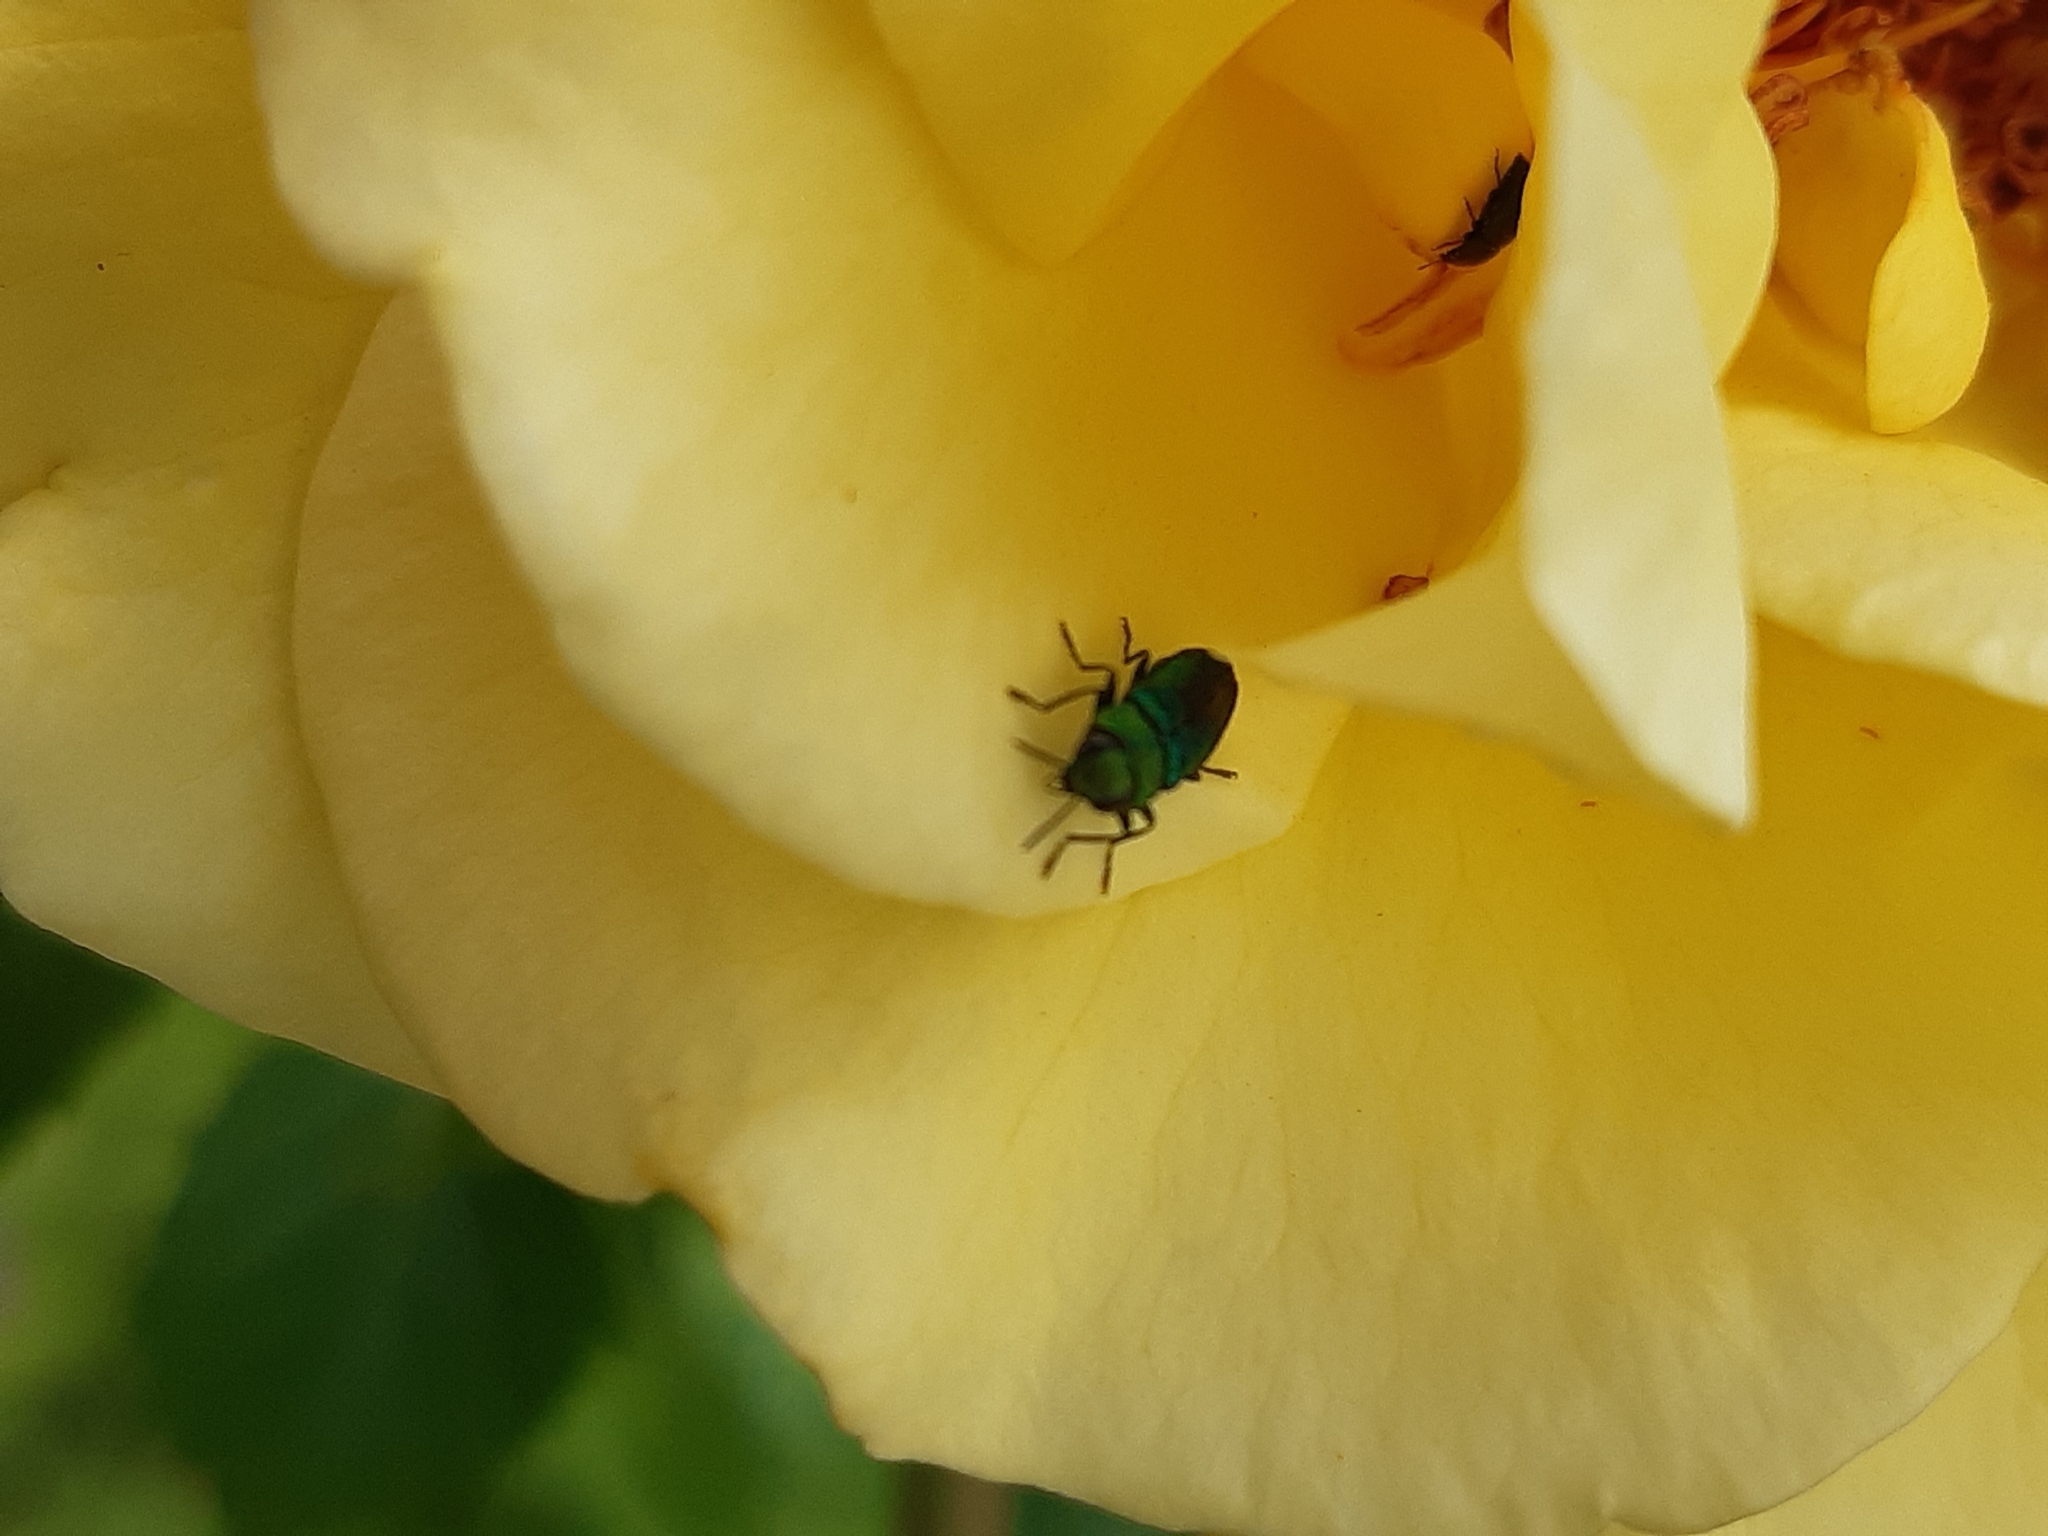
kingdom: Animalia
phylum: Arthropoda
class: Insecta
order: Coleoptera
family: Buprestidae
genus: Anthaxia
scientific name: Anthaxia nitidula
